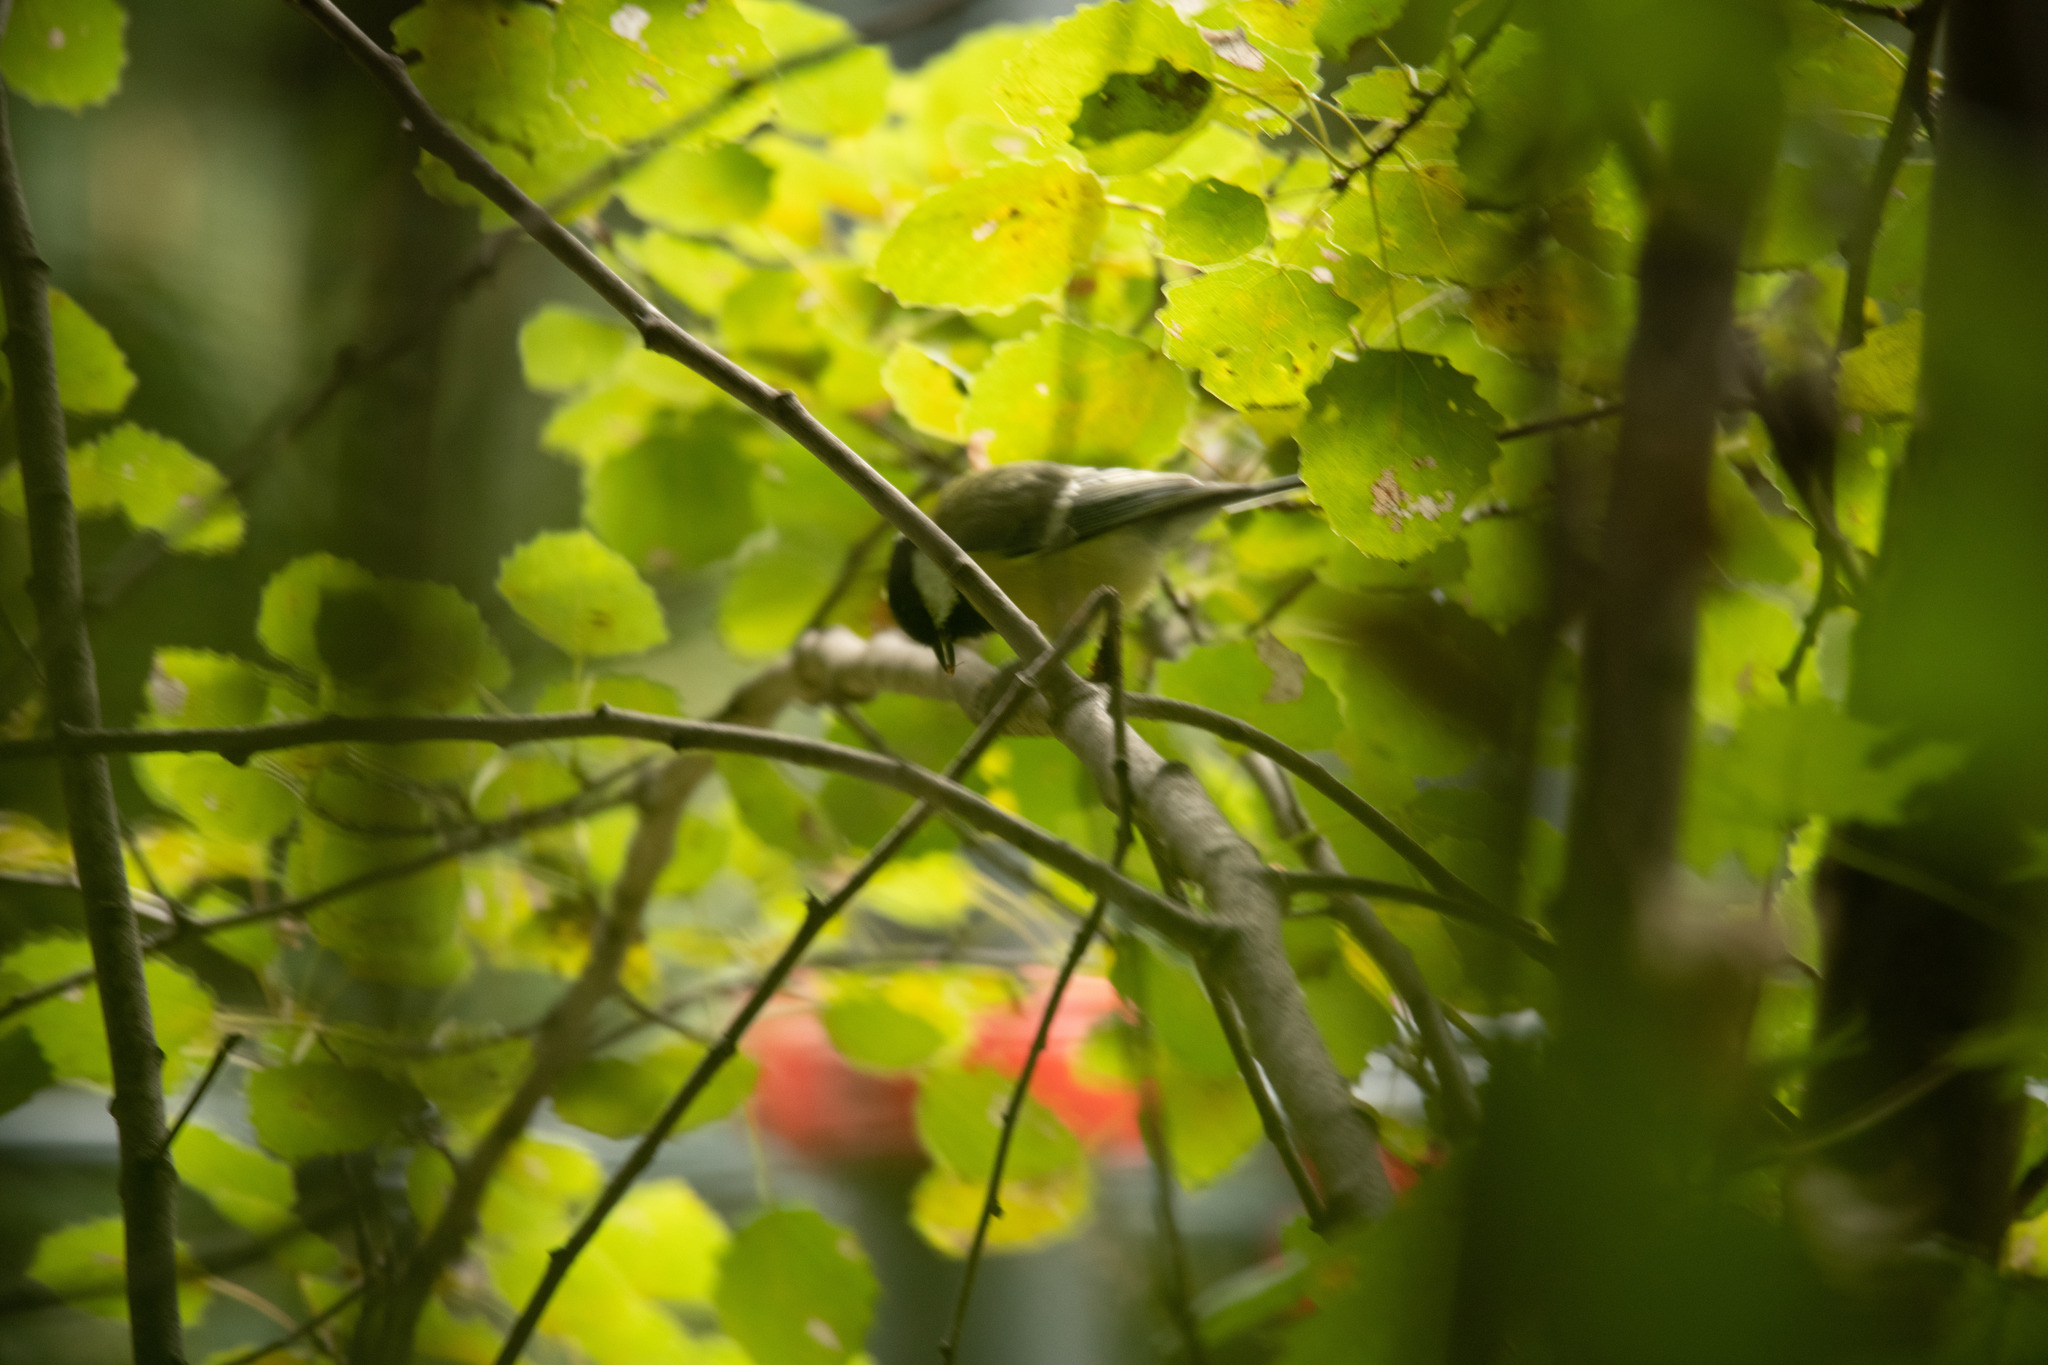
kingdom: Animalia
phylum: Chordata
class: Aves
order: Passeriformes
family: Paridae
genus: Parus
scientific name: Parus major
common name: Great tit
